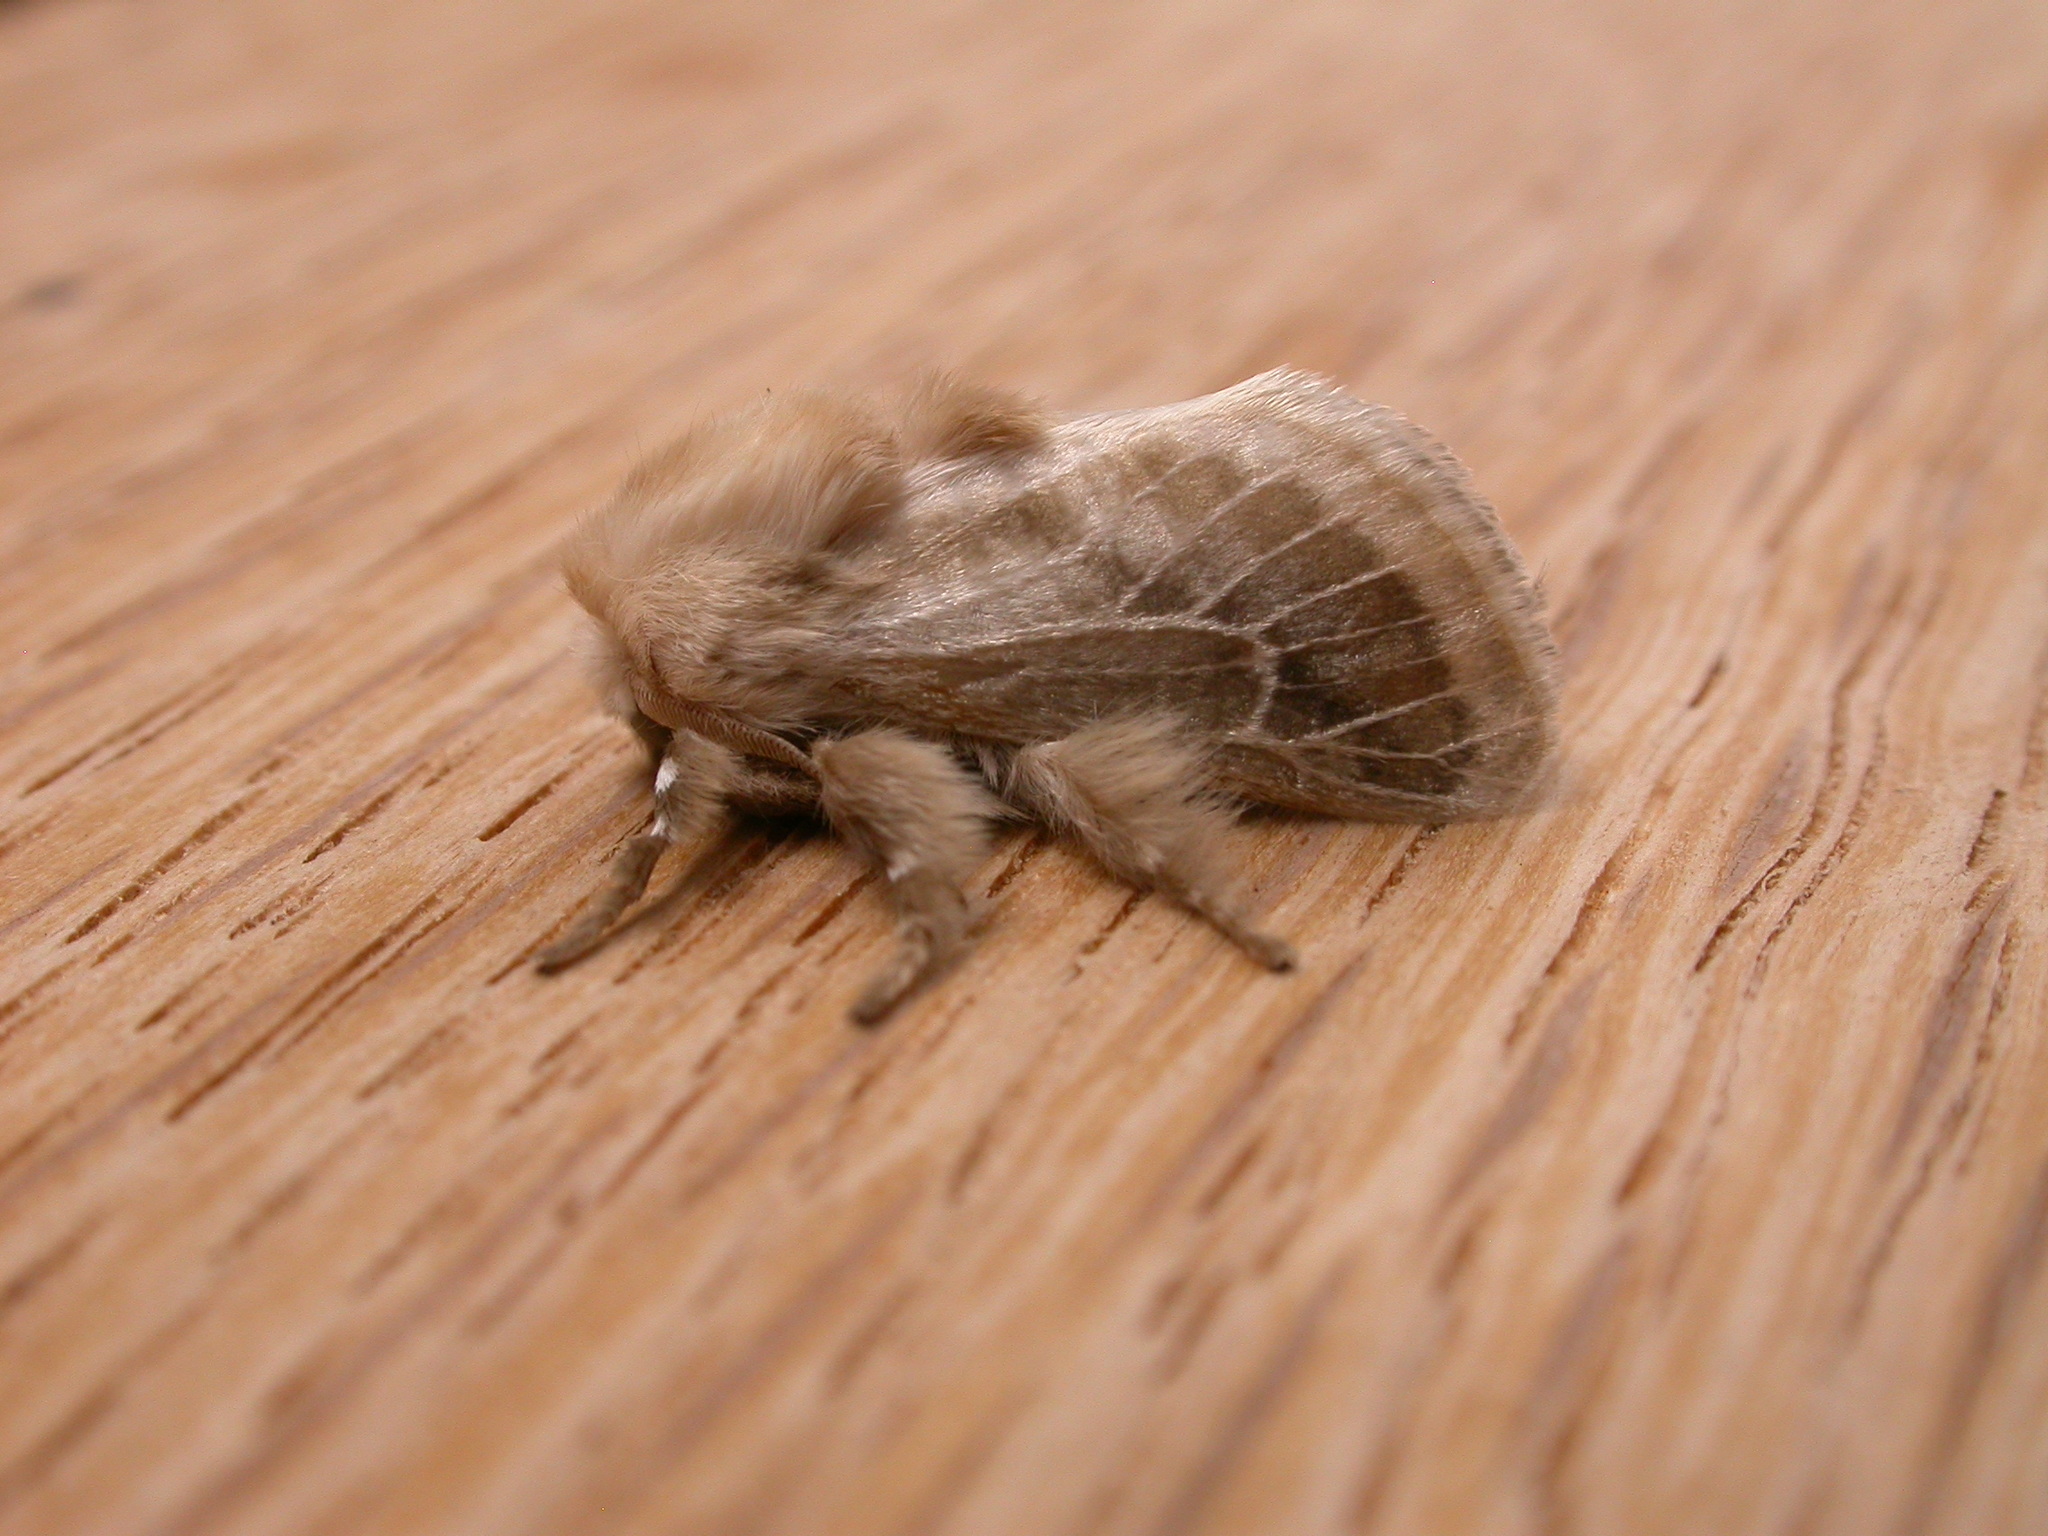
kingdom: Animalia
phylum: Arthropoda
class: Insecta
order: Lepidoptera
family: Limacodidae
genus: Doratifera
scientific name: Doratifera pinguis
